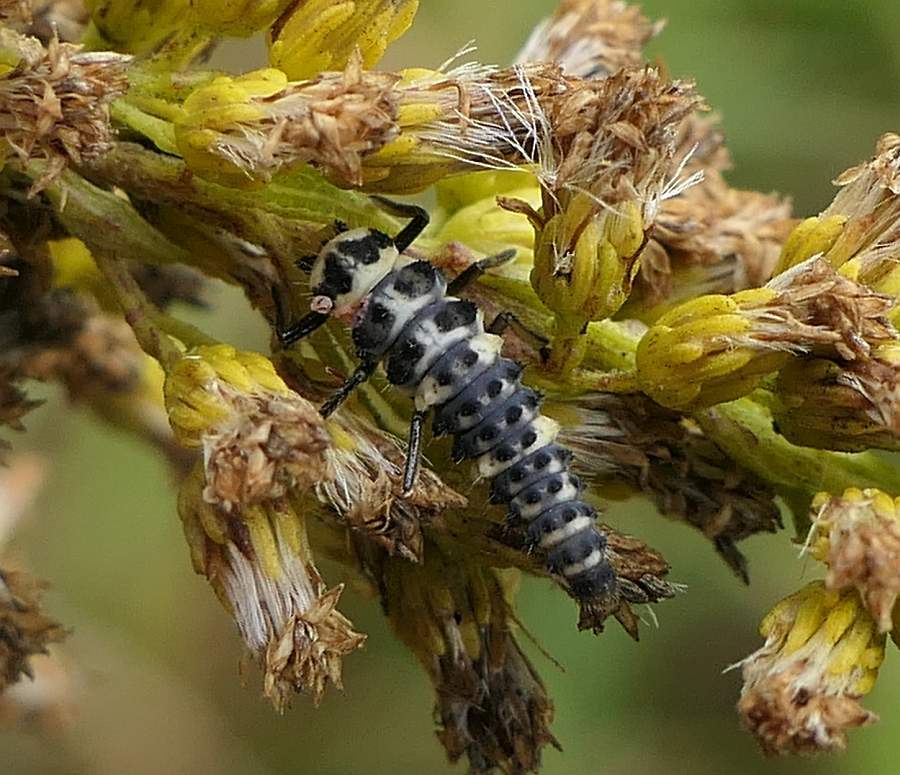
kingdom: Animalia
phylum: Arthropoda
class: Insecta
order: Coleoptera
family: Coccinellidae
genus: Coccinella
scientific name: Coccinella trifasciata
